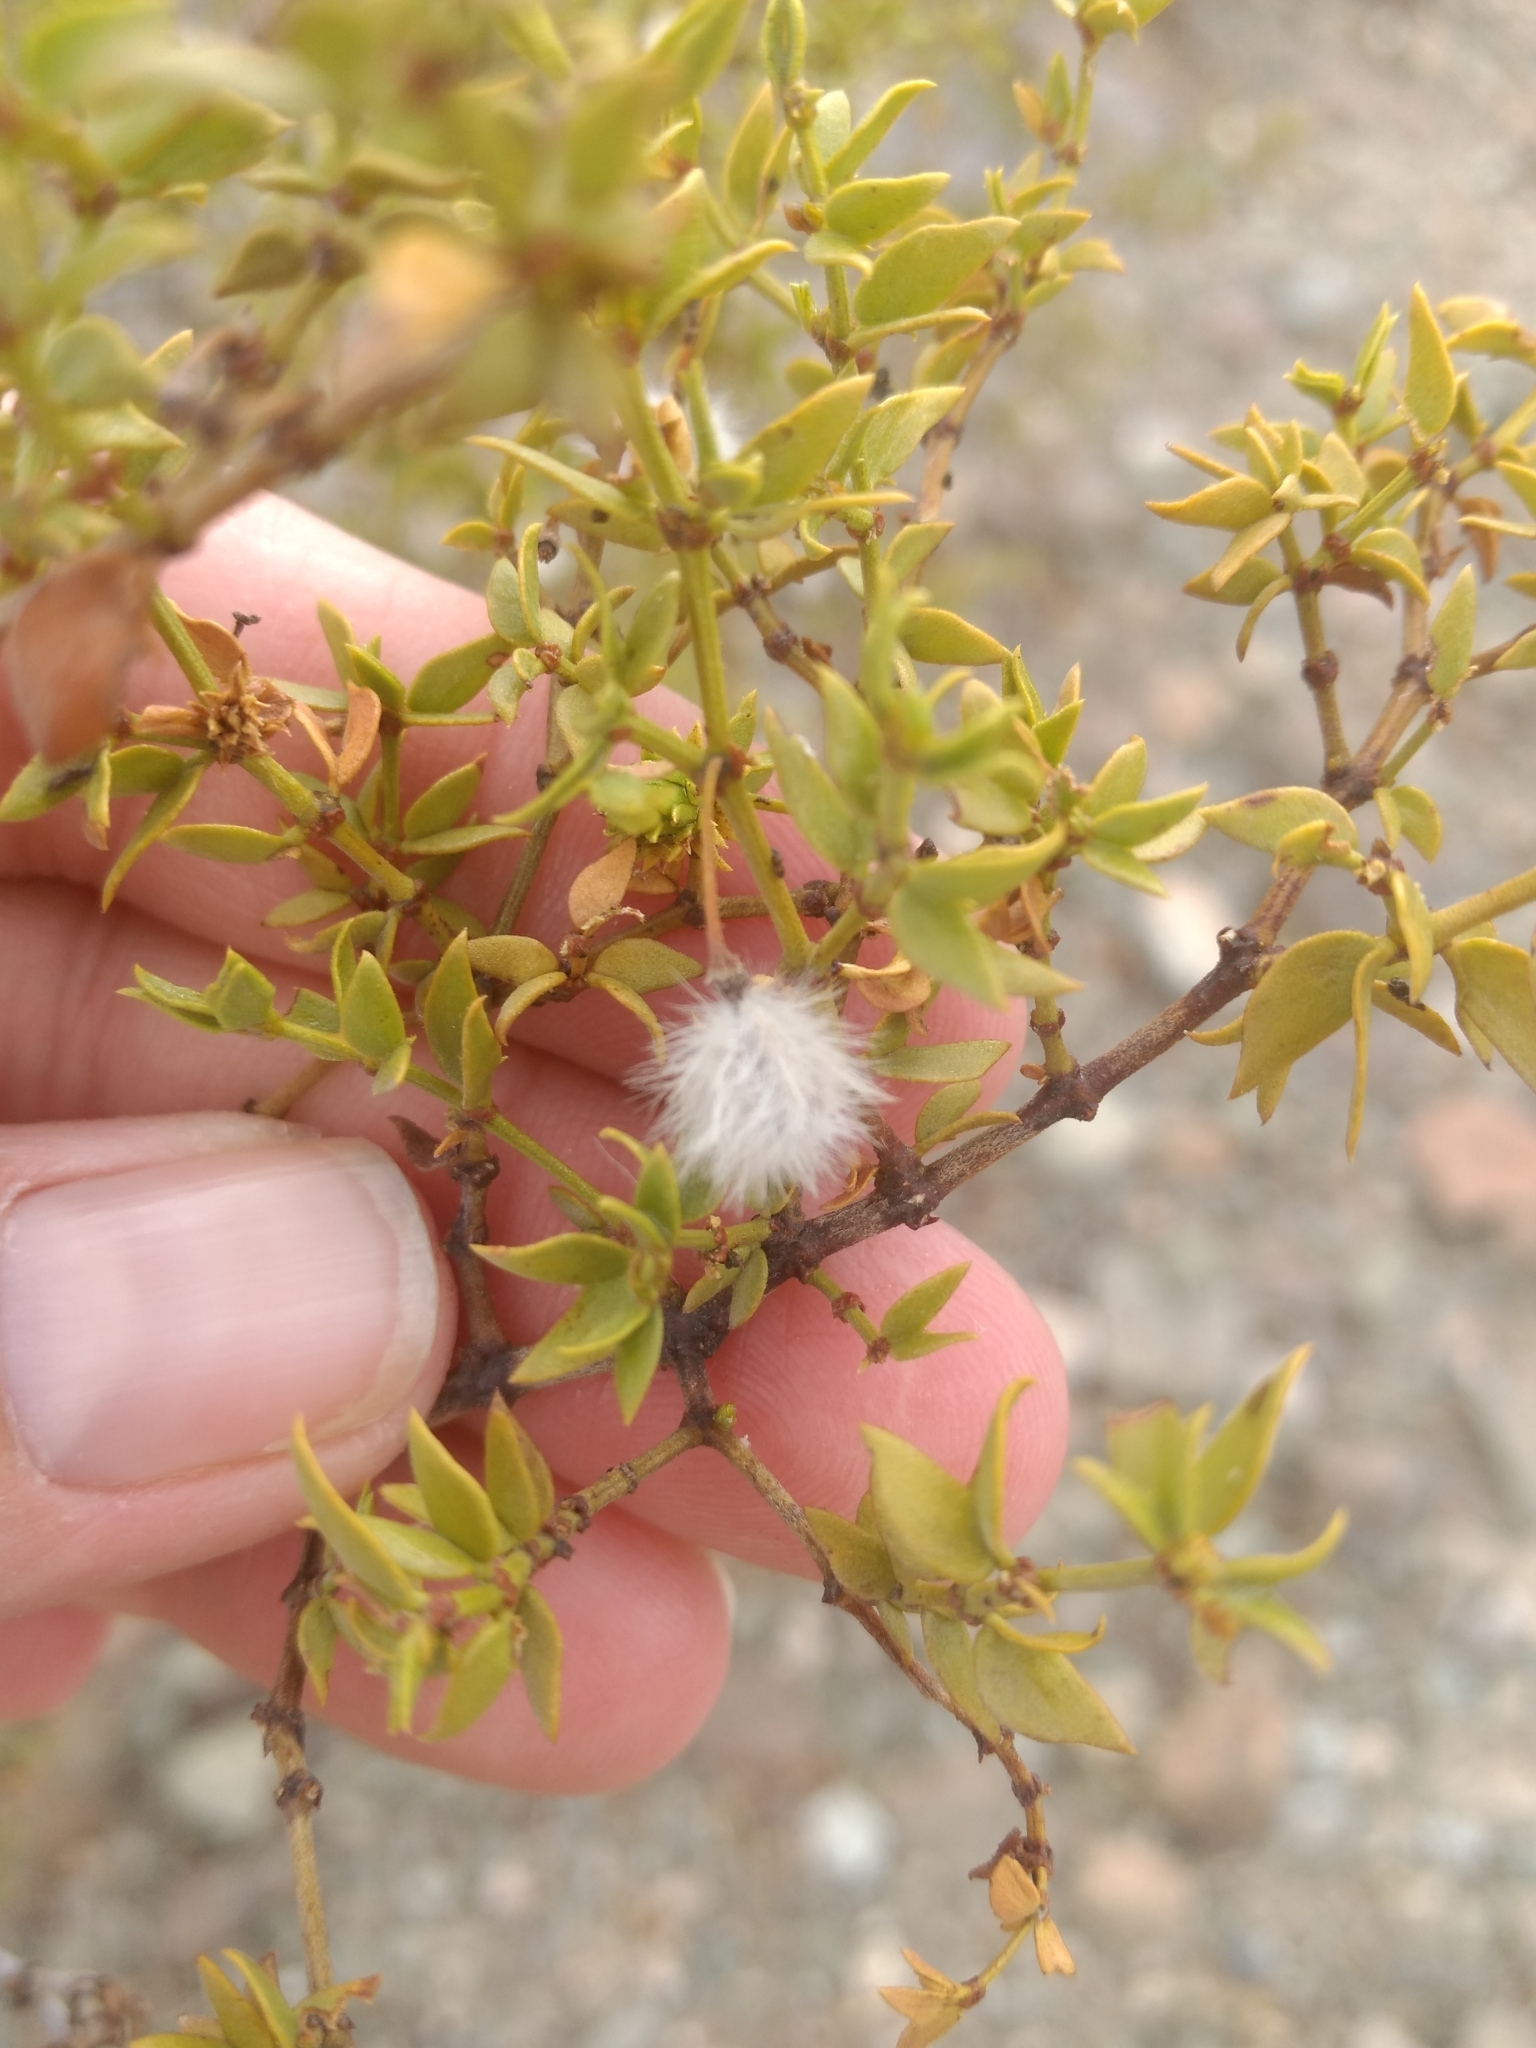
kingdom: Plantae
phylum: Tracheophyta
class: Magnoliopsida
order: Zygophyllales
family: Zygophyllaceae
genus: Larrea
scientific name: Larrea tridentata
